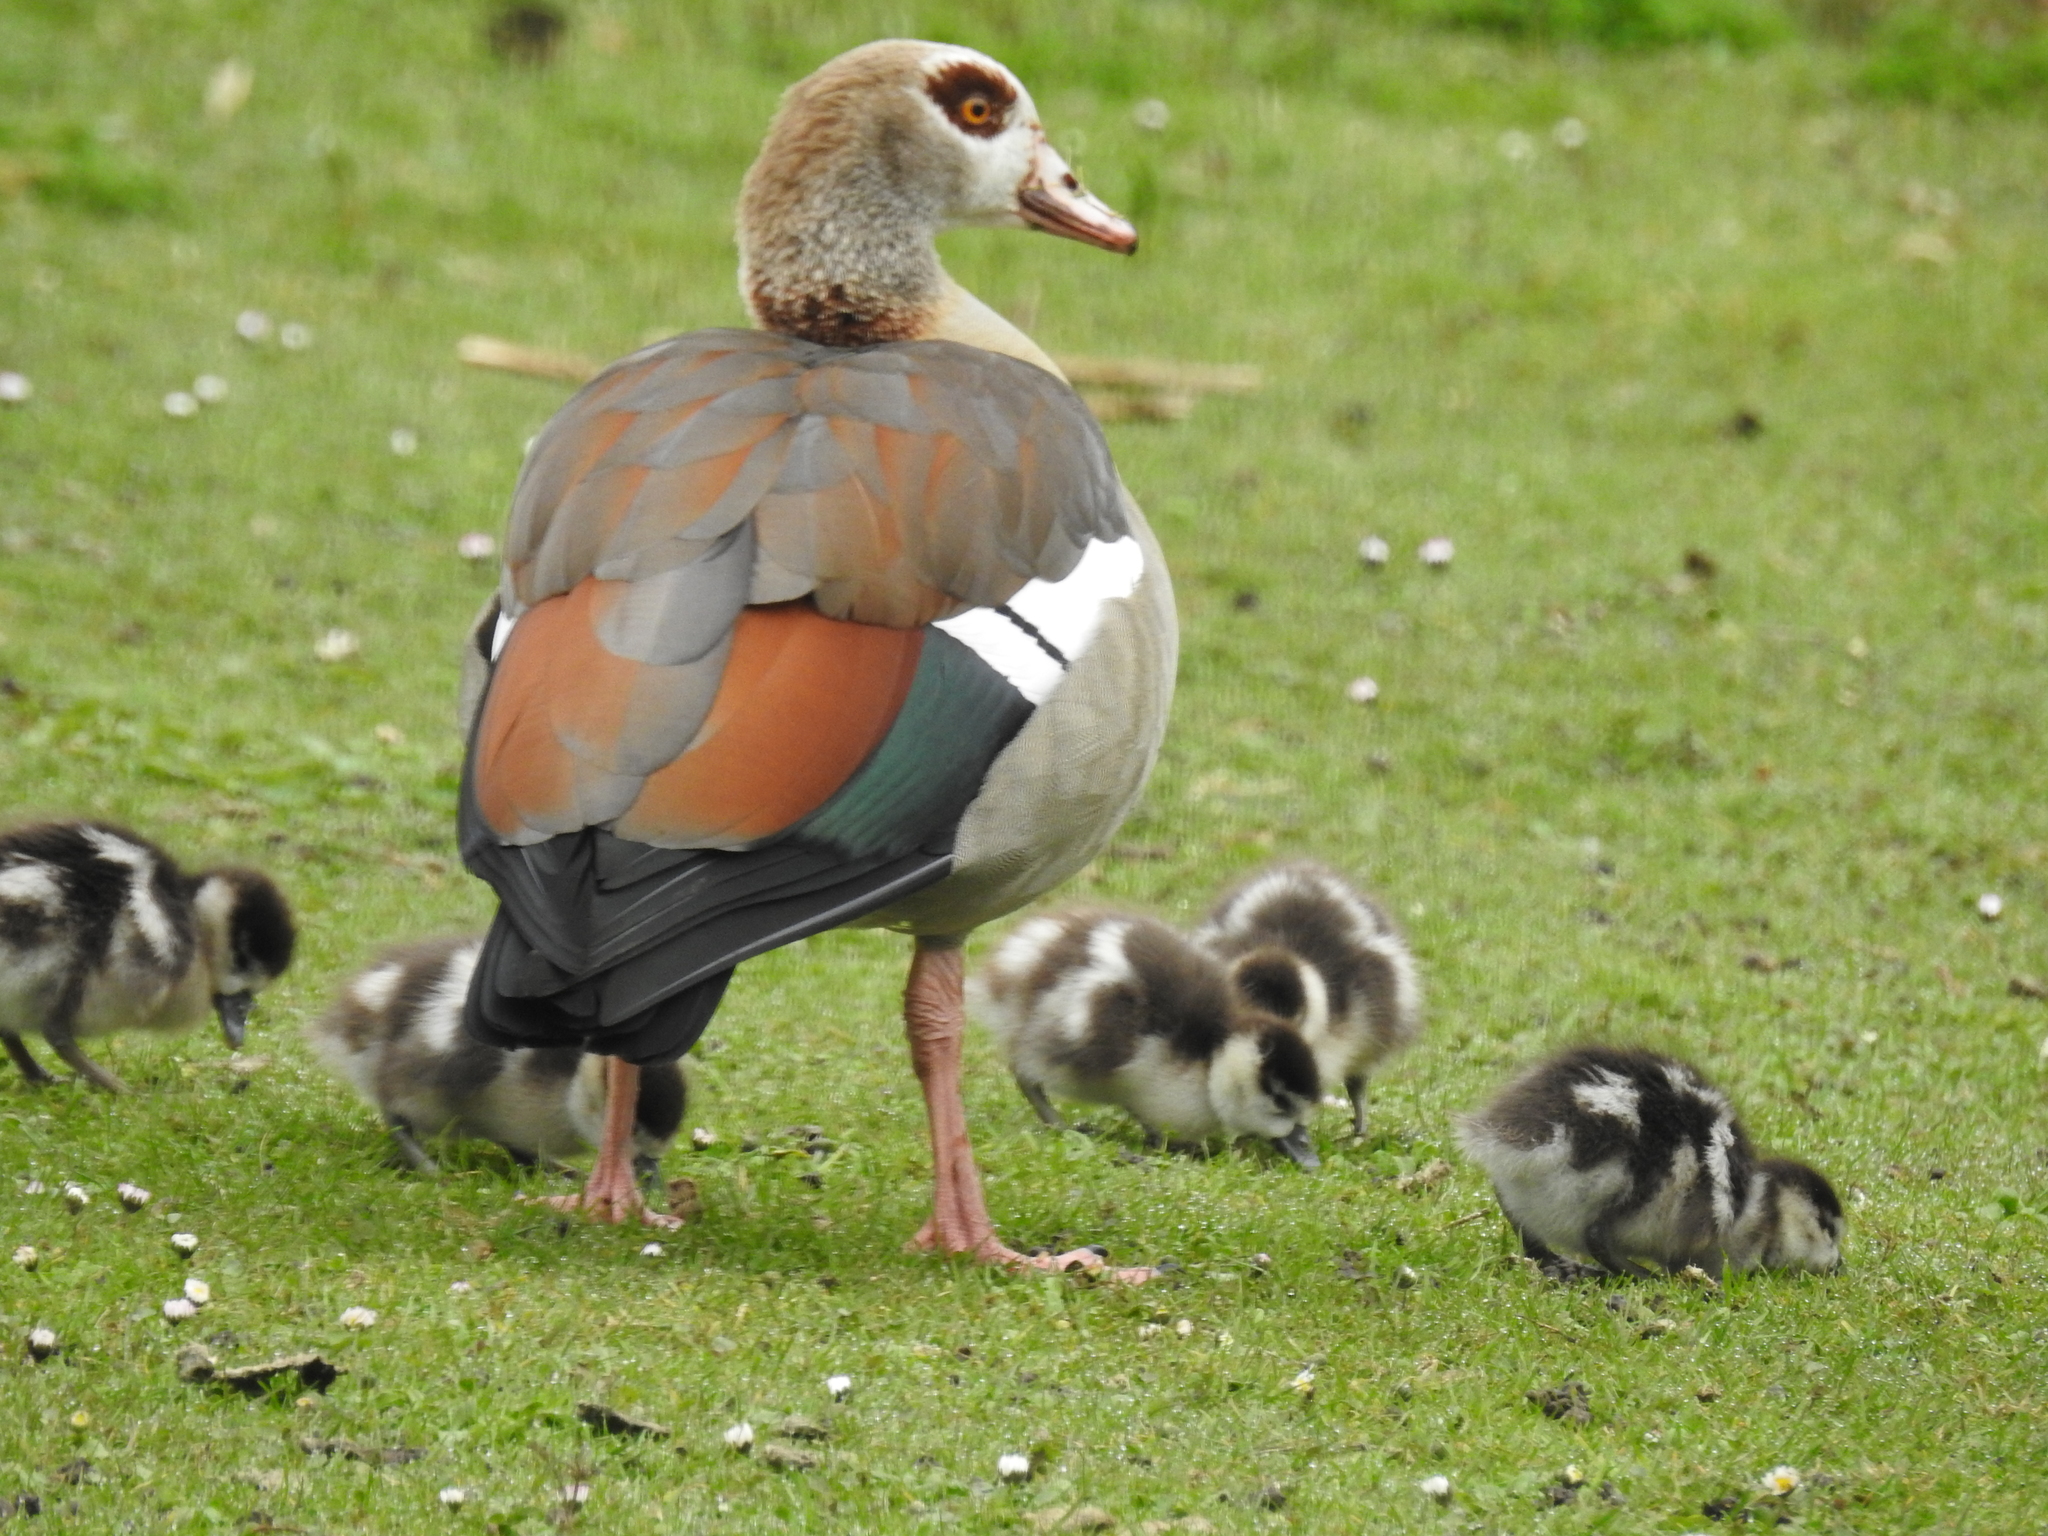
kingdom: Animalia
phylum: Chordata
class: Aves
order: Anseriformes
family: Anatidae
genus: Alopochen
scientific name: Alopochen aegyptiaca
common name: Egyptian goose
